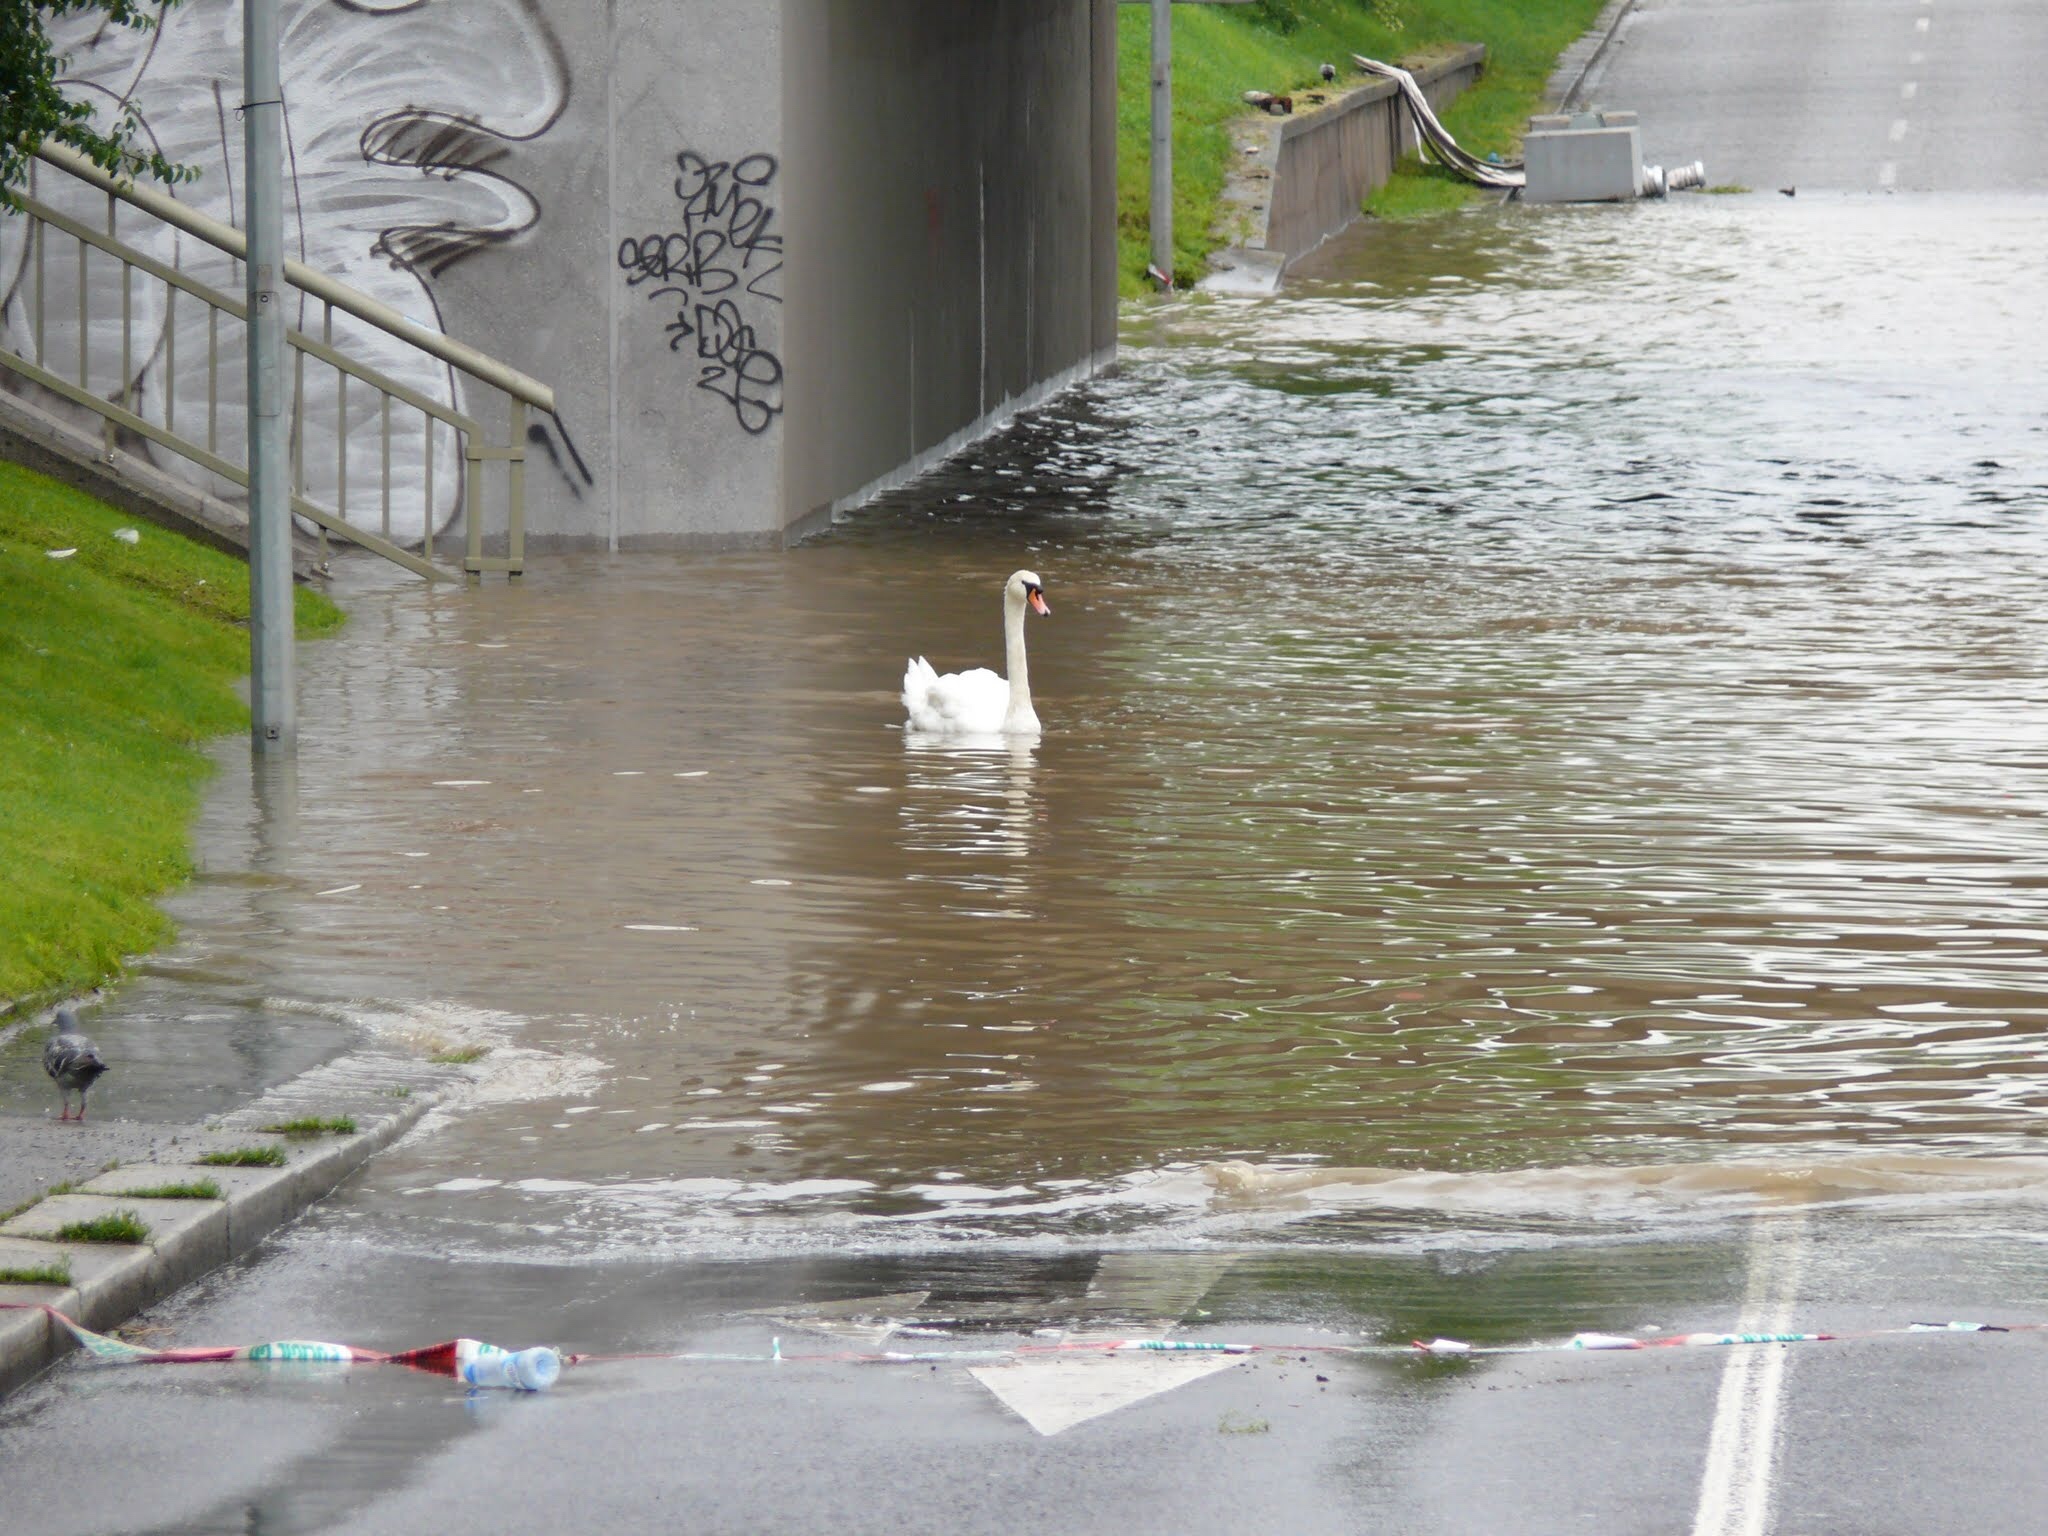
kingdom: Animalia
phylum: Chordata
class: Aves
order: Anseriformes
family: Anatidae
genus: Cygnus
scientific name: Cygnus olor
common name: Mute swan
